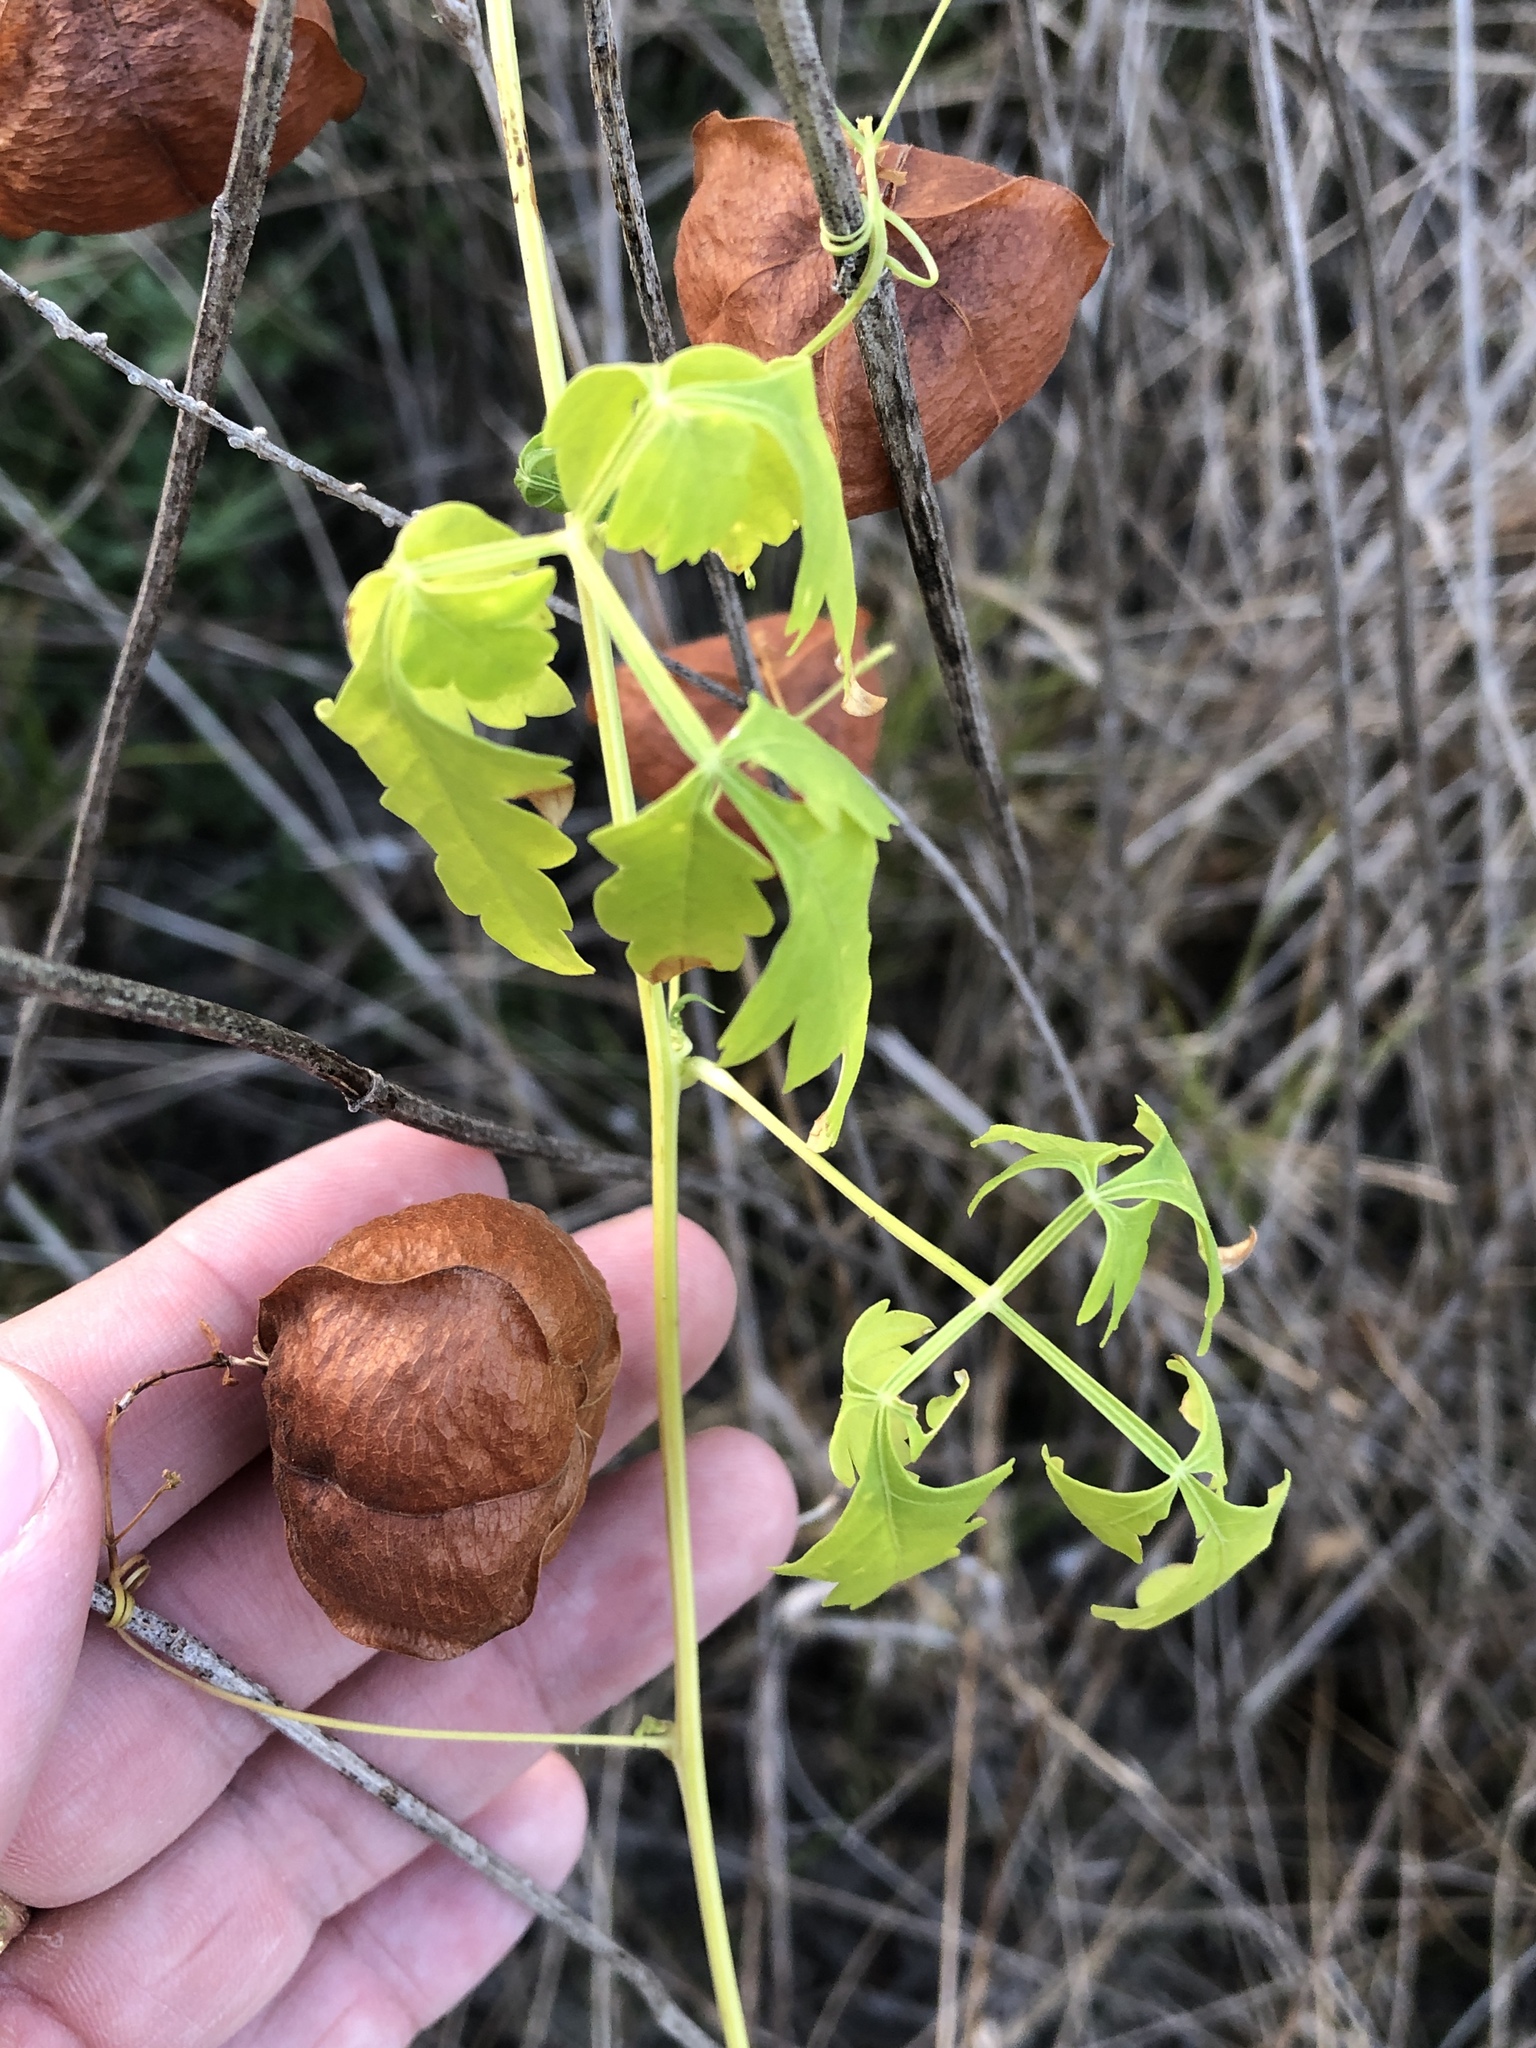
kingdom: Plantae
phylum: Tracheophyta
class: Magnoliopsida
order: Sapindales
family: Sapindaceae
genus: Cardiospermum
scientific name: Cardiospermum halicacabum
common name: Balloon vine
